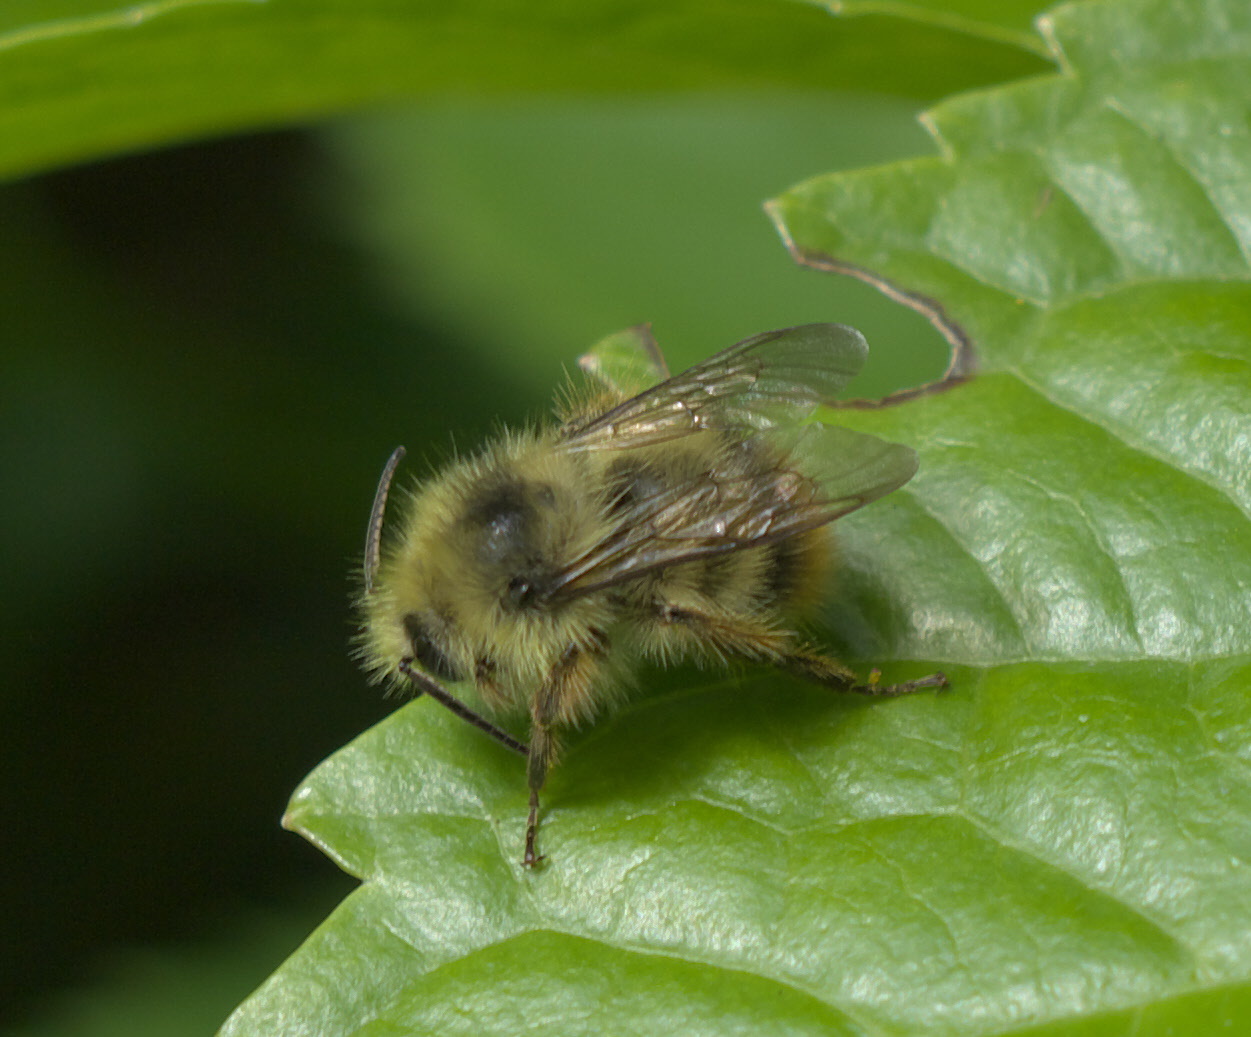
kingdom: Animalia
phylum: Arthropoda
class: Insecta
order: Hymenoptera
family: Apidae
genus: Bombus
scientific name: Bombus mixtus
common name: Fuzzy-horned bumble bee
